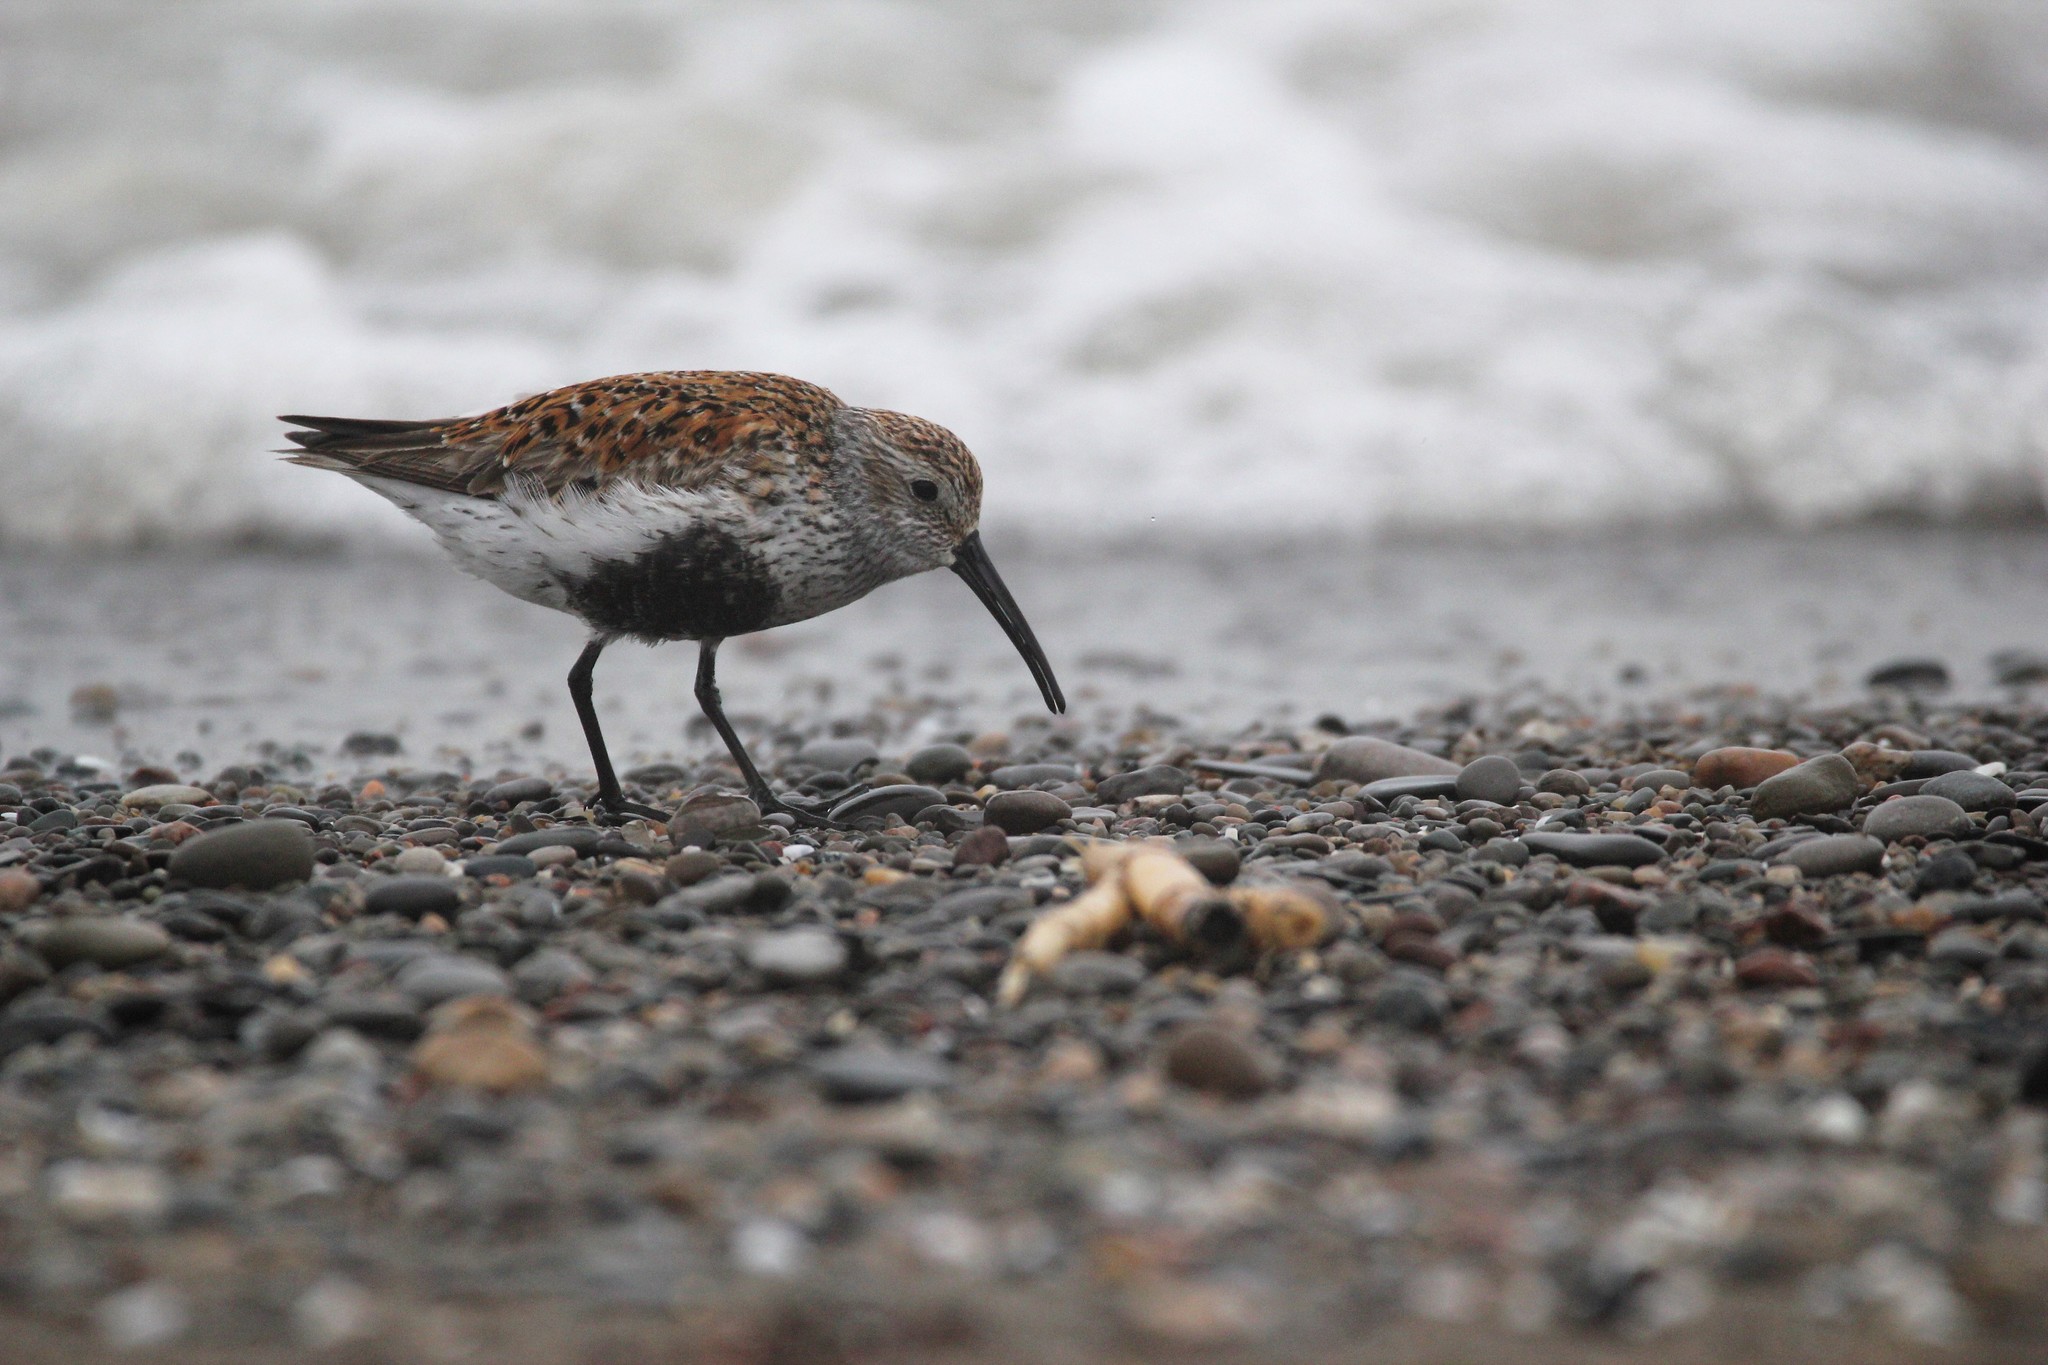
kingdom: Animalia
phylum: Chordata
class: Aves
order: Charadriiformes
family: Scolopacidae
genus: Calidris
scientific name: Calidris alpina
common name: Dunlin
